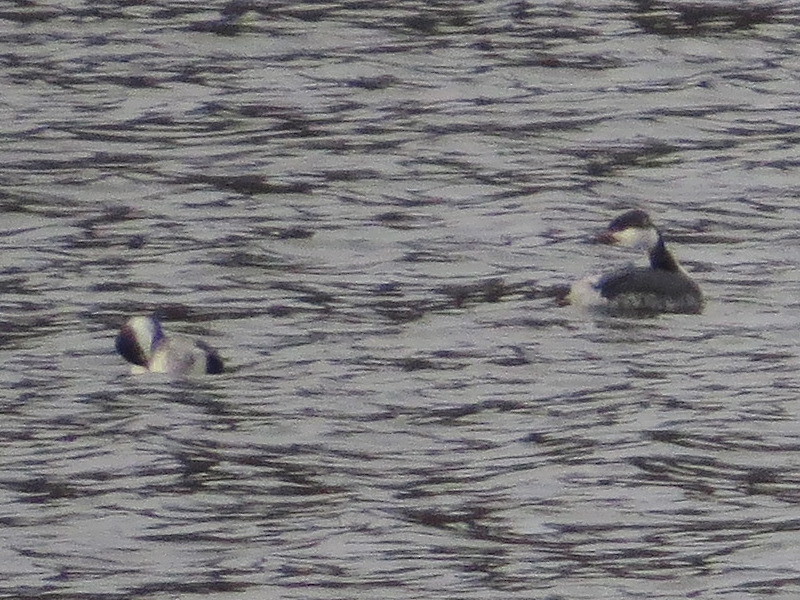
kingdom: Animalia
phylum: Chordata
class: Aves
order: Podicipediformes
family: Podicipedidae
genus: Podiceps
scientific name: Podiceps auritus
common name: Horned grebe
